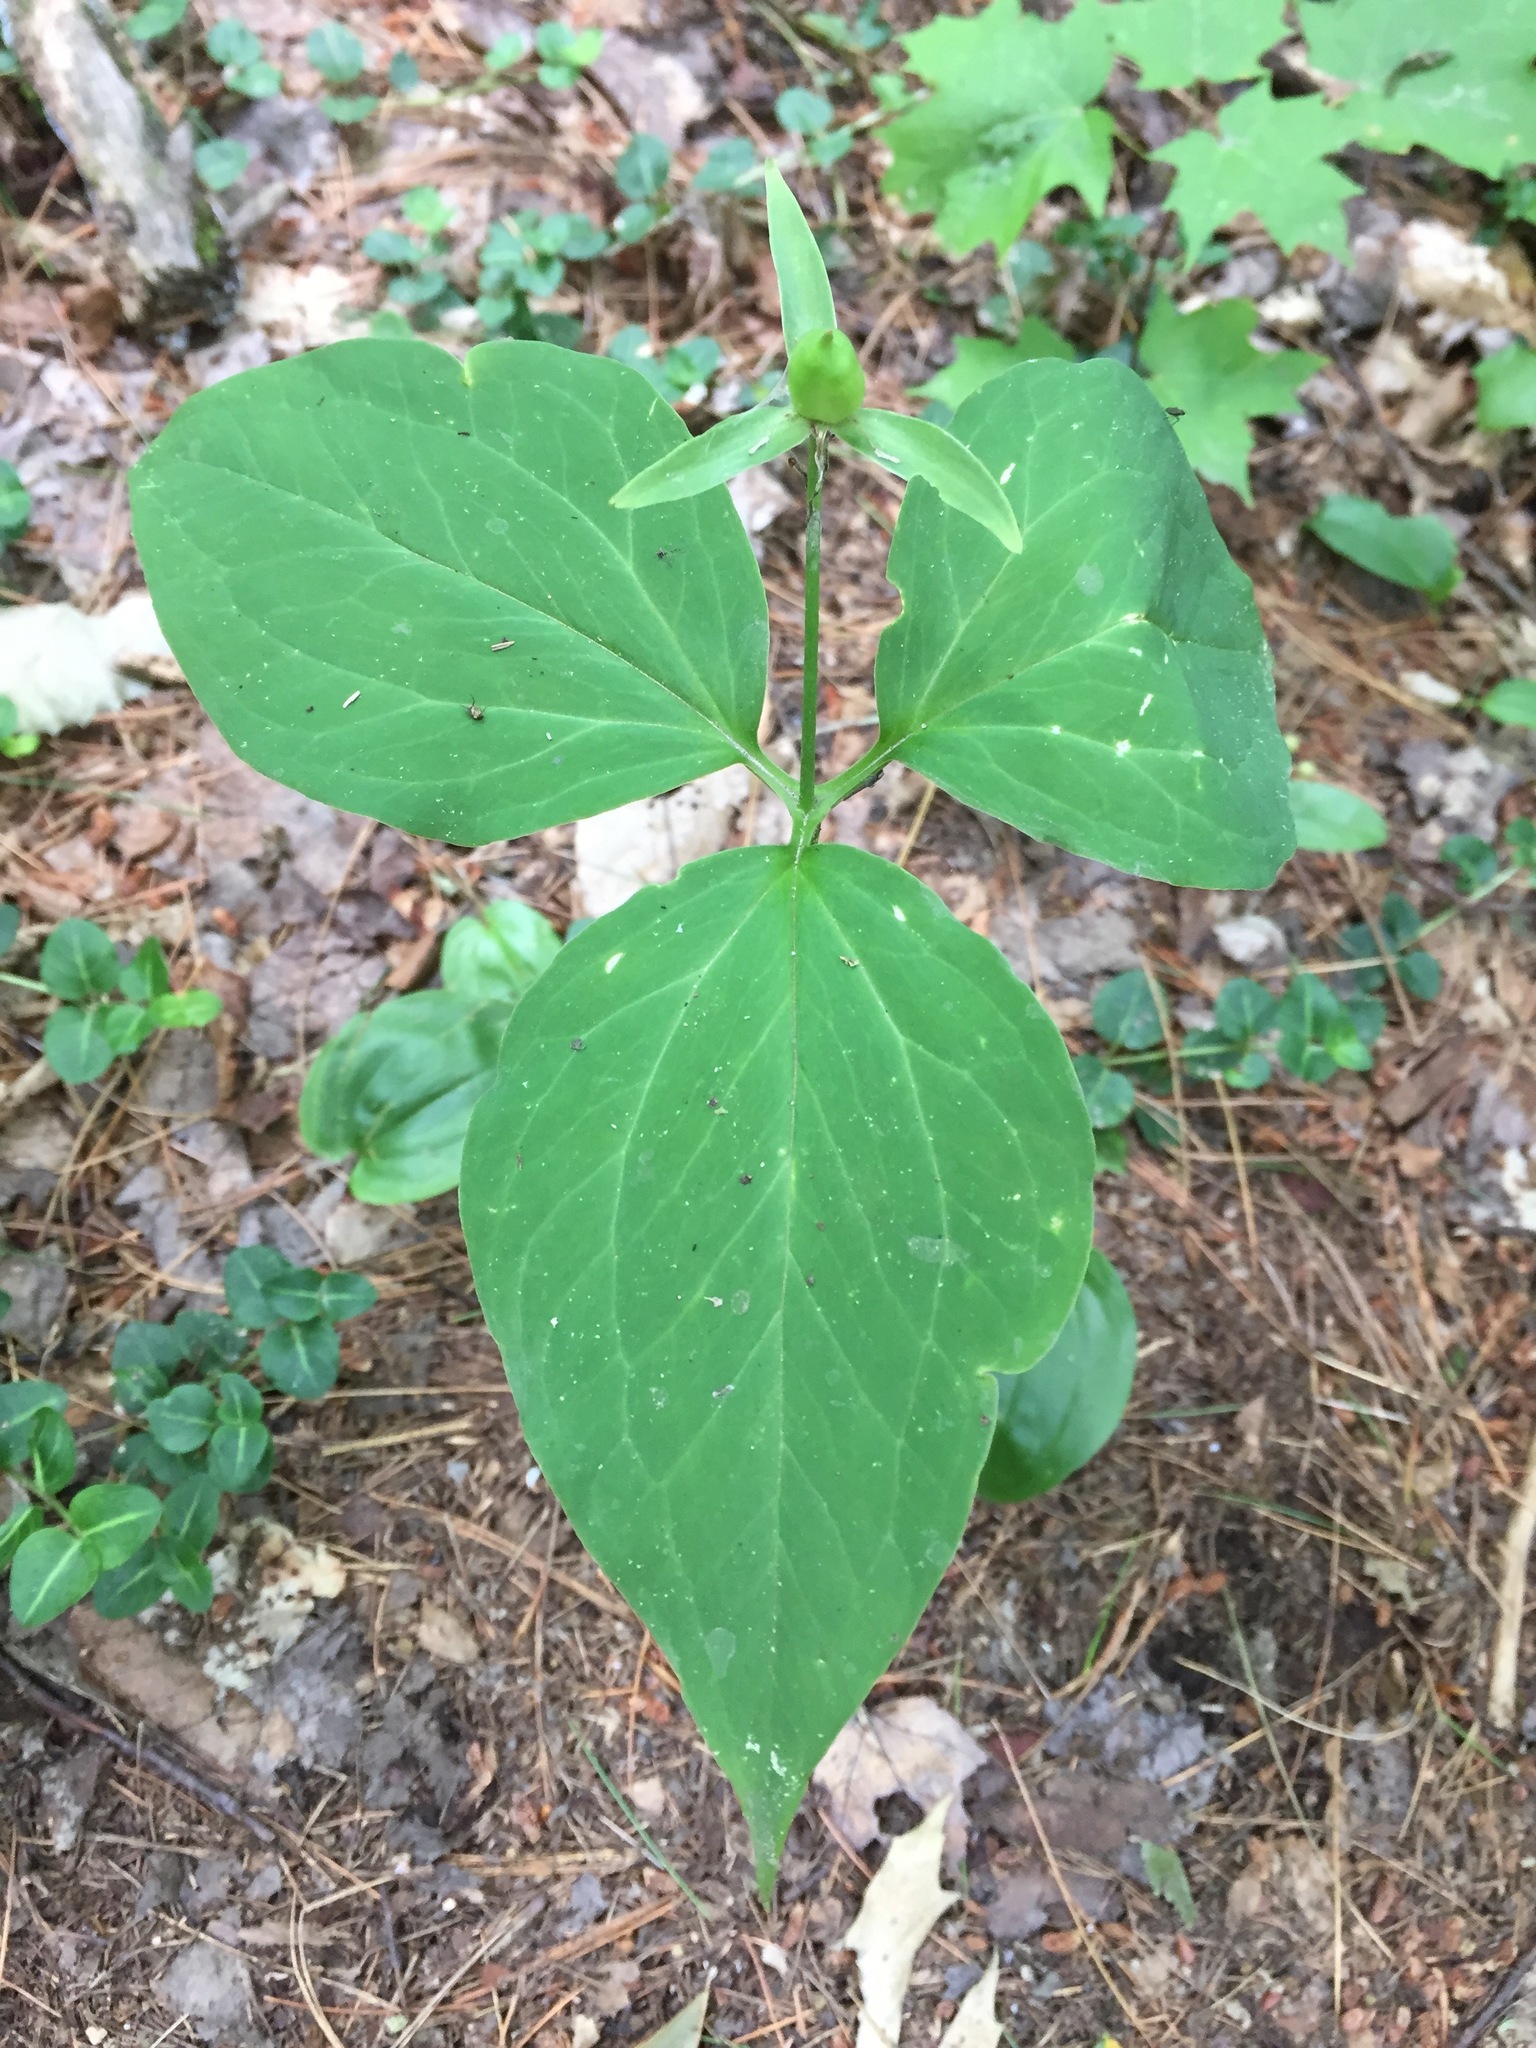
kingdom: Plantae
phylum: Tracheophyta
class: Liliopsida
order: Liliales
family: Melanthiaceae
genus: Trillium
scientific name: Trillium undulatum
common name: Paint trillium
